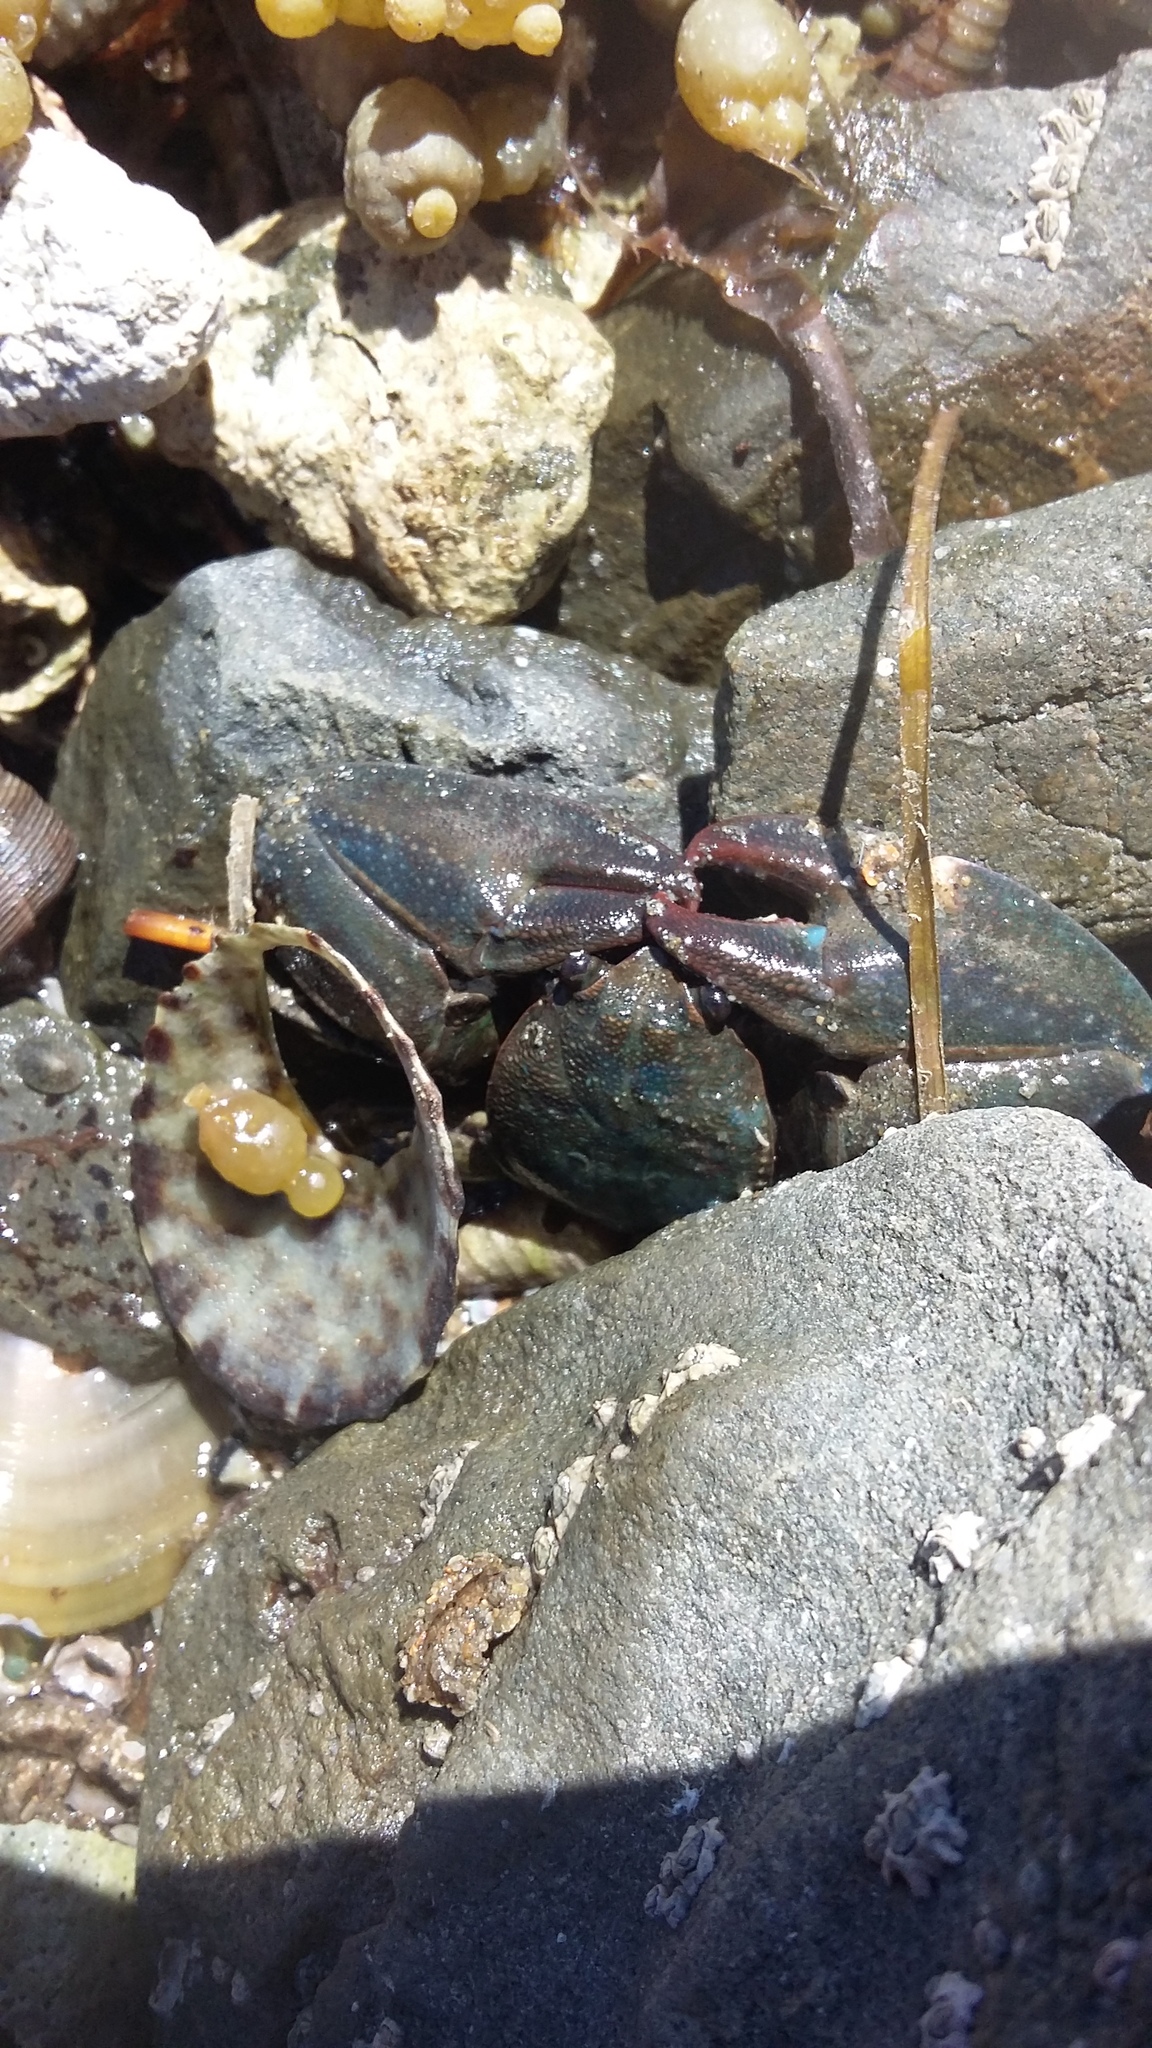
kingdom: Animalia
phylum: Arthropoda
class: Malacostraca
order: Decapoda
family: Porcellanidae
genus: Petrolisthes
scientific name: Petrolisthes elongatus
